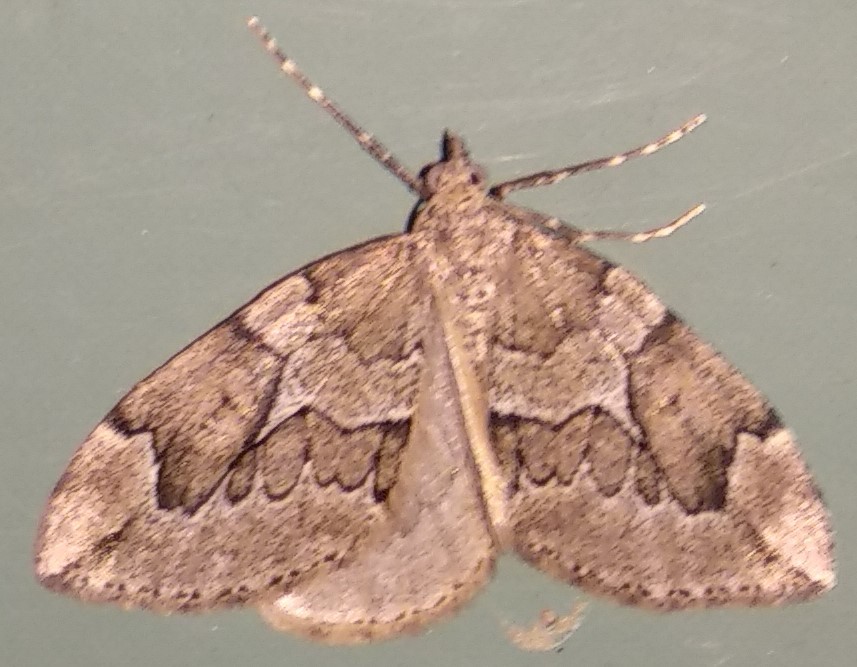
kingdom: Animalia
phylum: Arthropoda
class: Insecta
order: Lepidoptera
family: Geometridae
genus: Thera
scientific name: Thera juniperata
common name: Juniper carpet
